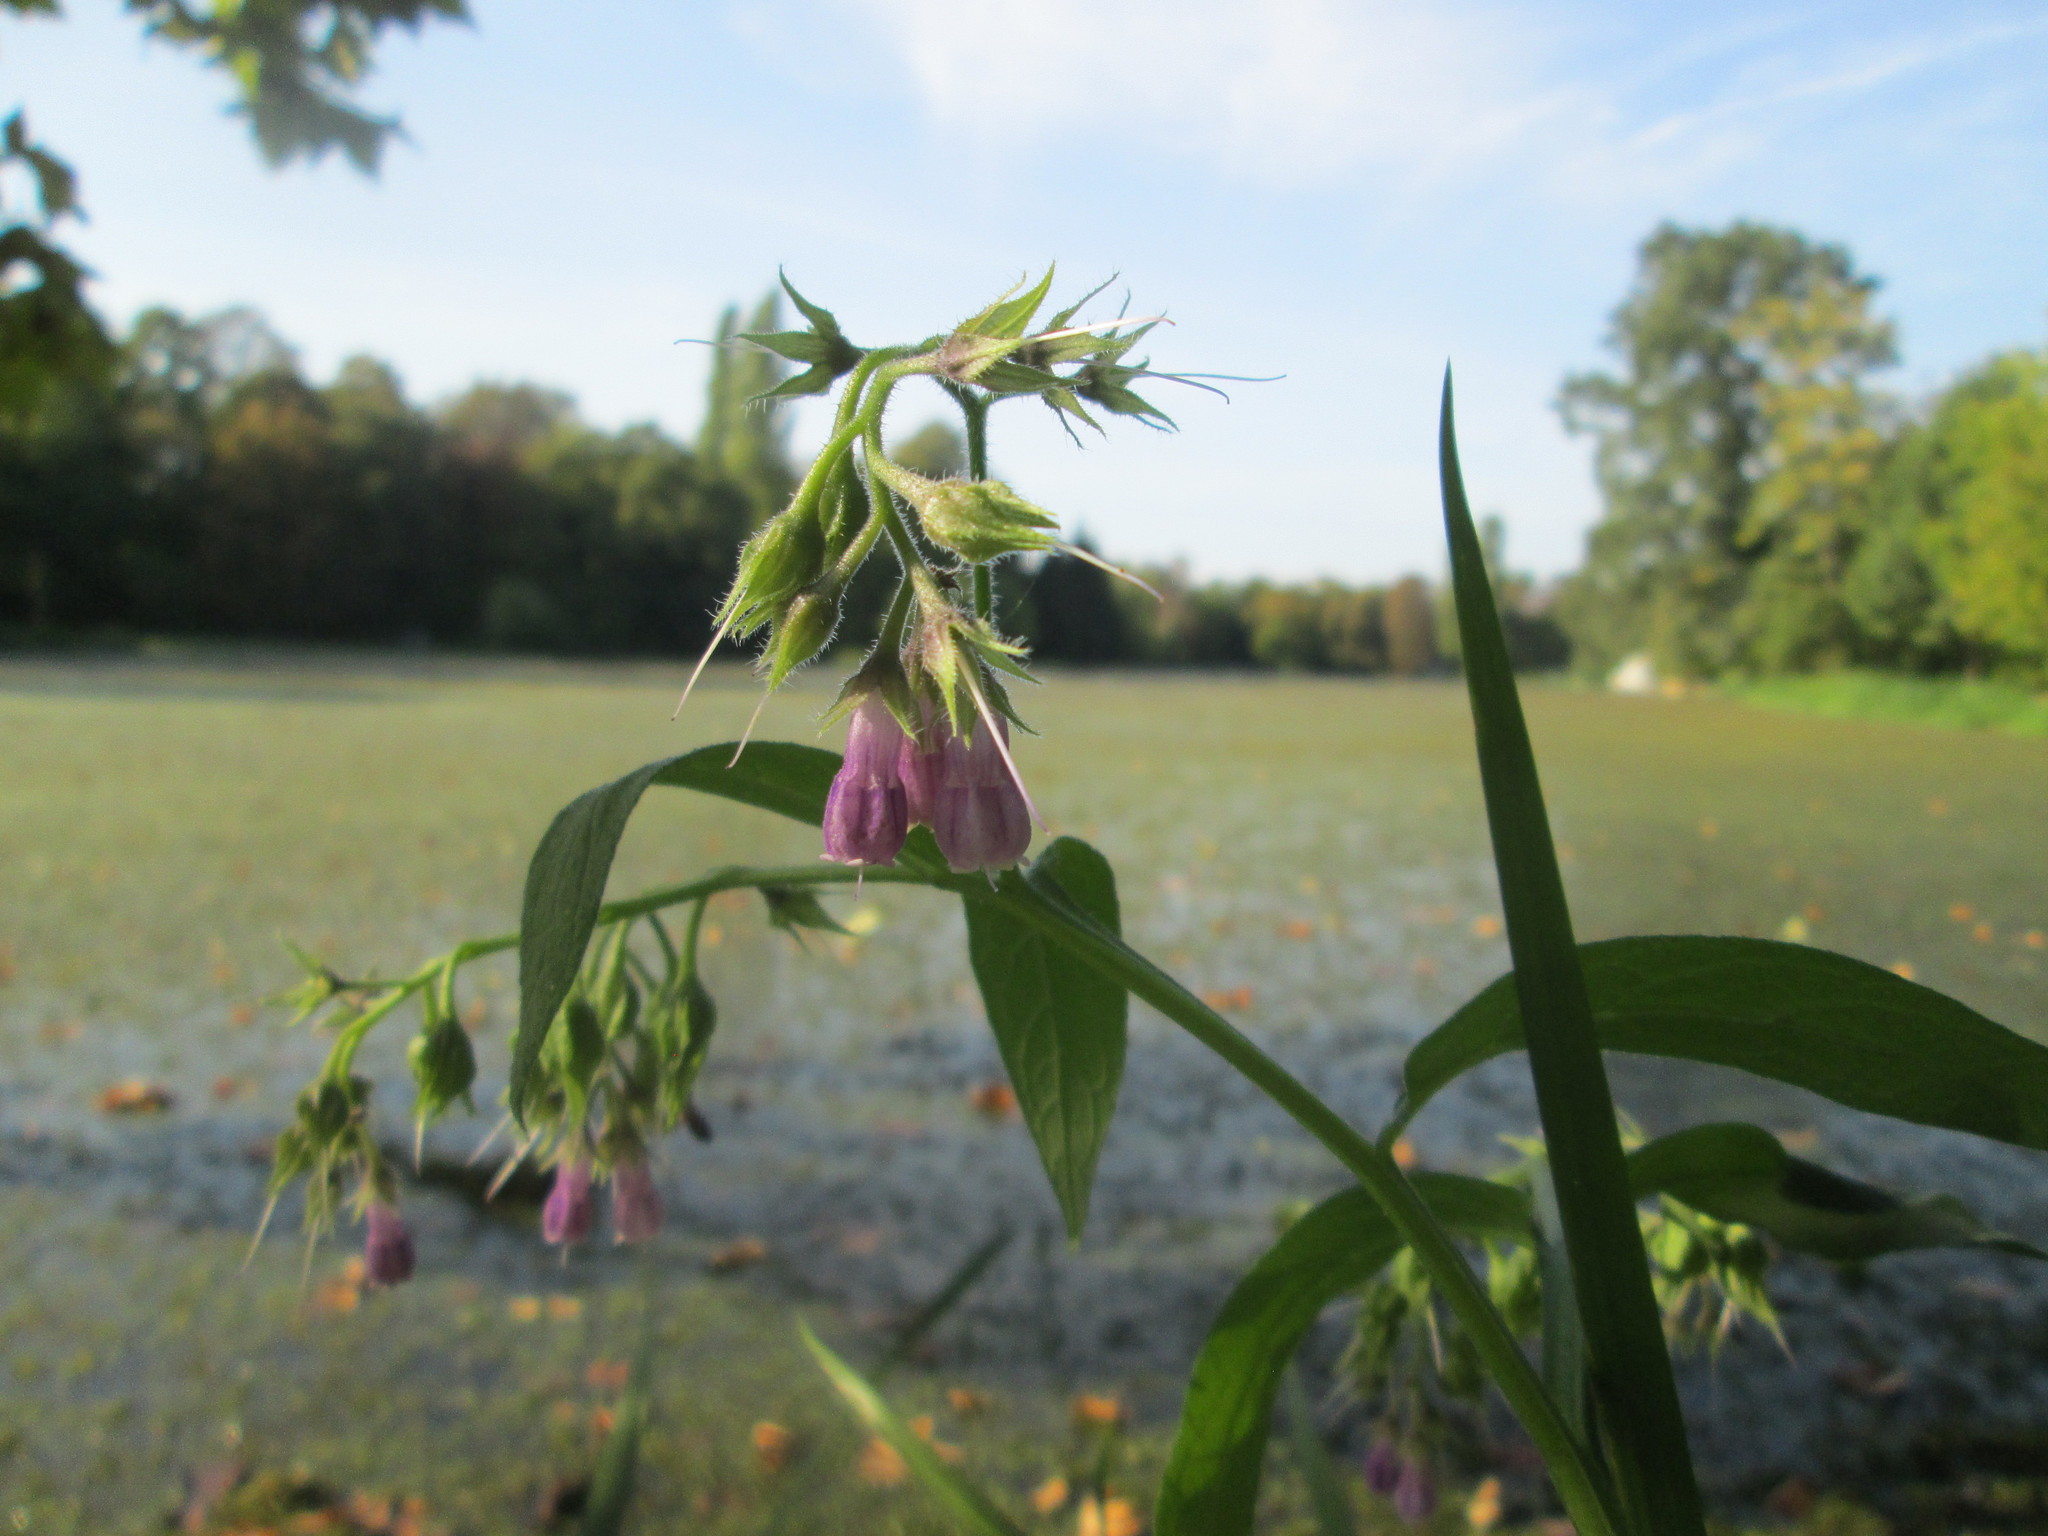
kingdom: Plantae
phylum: Tracheophyta
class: Magnoliopsida
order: Boraginales
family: Boraginaceae
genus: Symphytum
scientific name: Symphytum officinale
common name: Common comfrey
